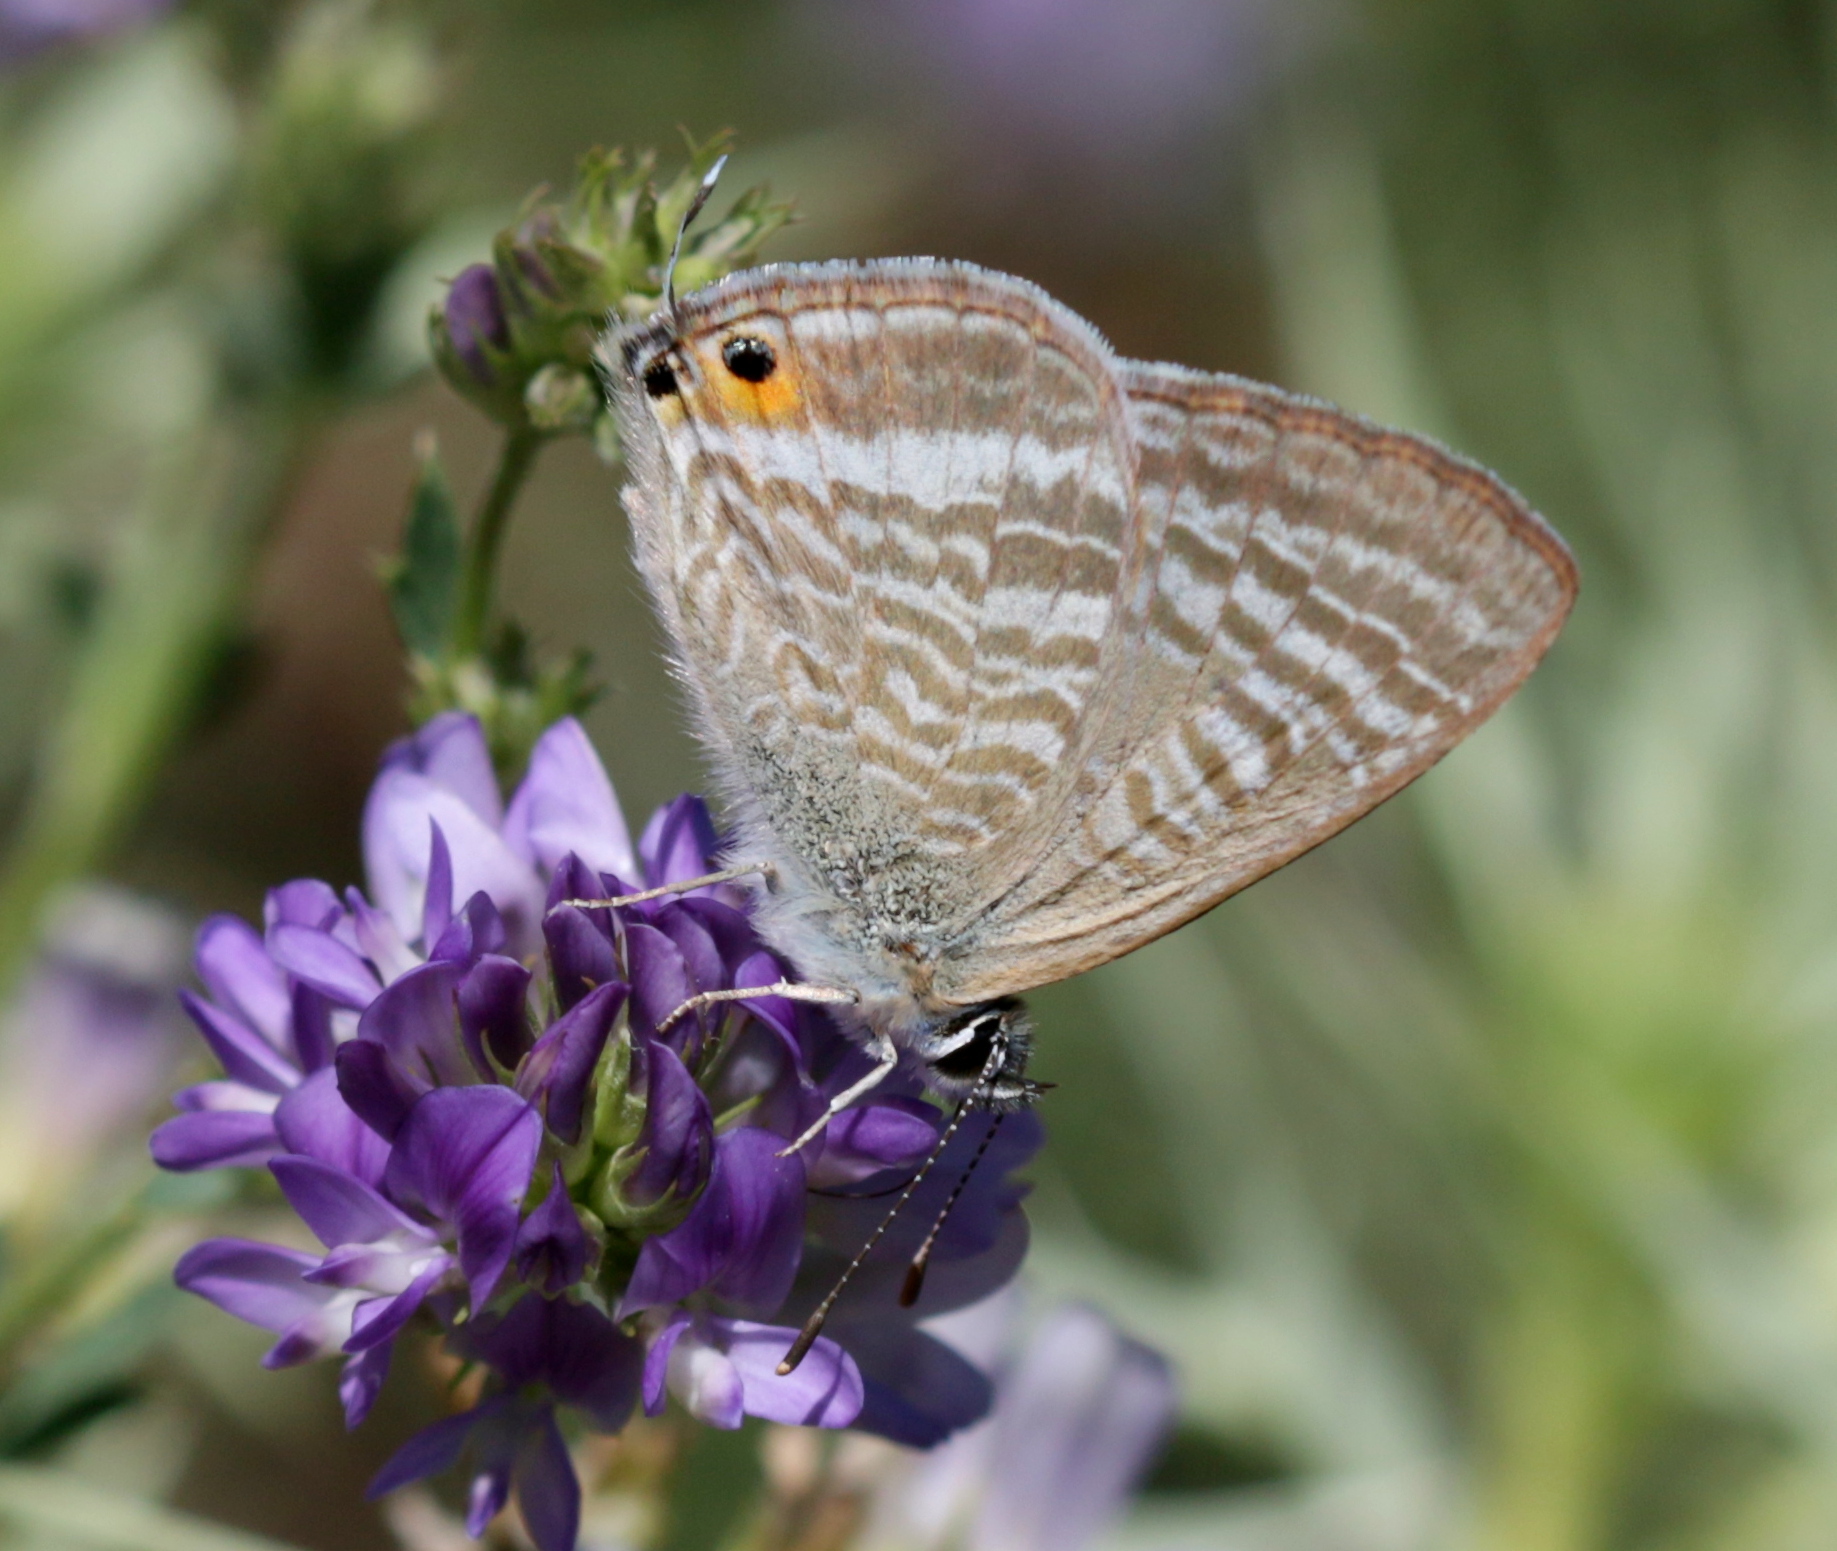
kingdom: Plantae
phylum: Tracheophyta
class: Magnoliopsida
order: Fabales
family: Fabaceae
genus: Medicago
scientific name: Medicago sativa
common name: Alfalfa
